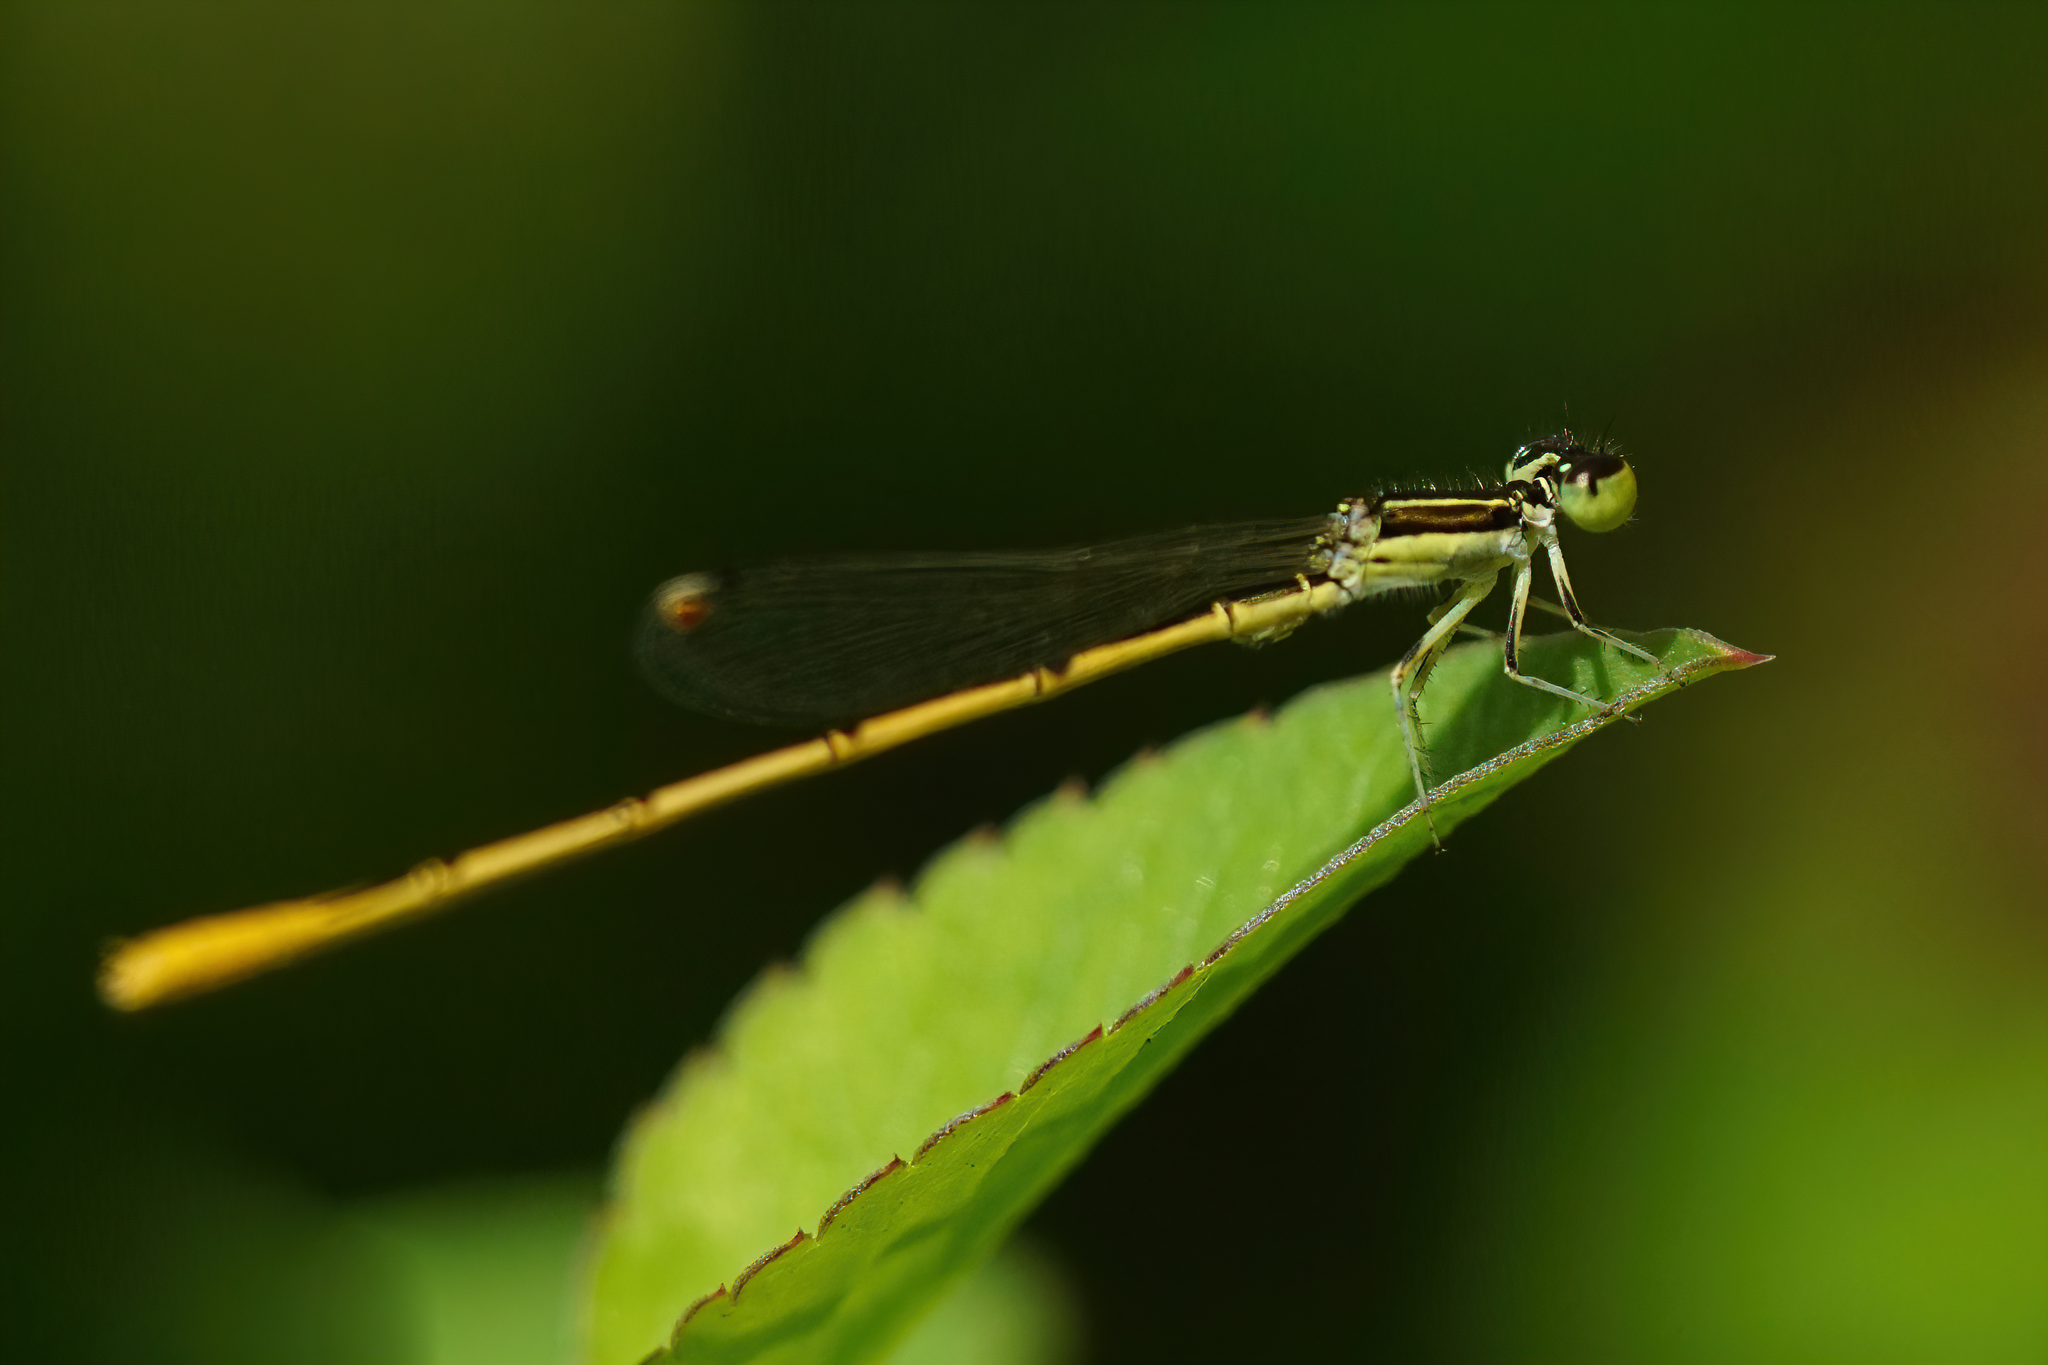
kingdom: Animalia
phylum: Arthropoda
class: Insecta
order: Odonata
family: Coenagrionidae
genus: Ischnura
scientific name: Ischnura hastata
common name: Citrine forktail
